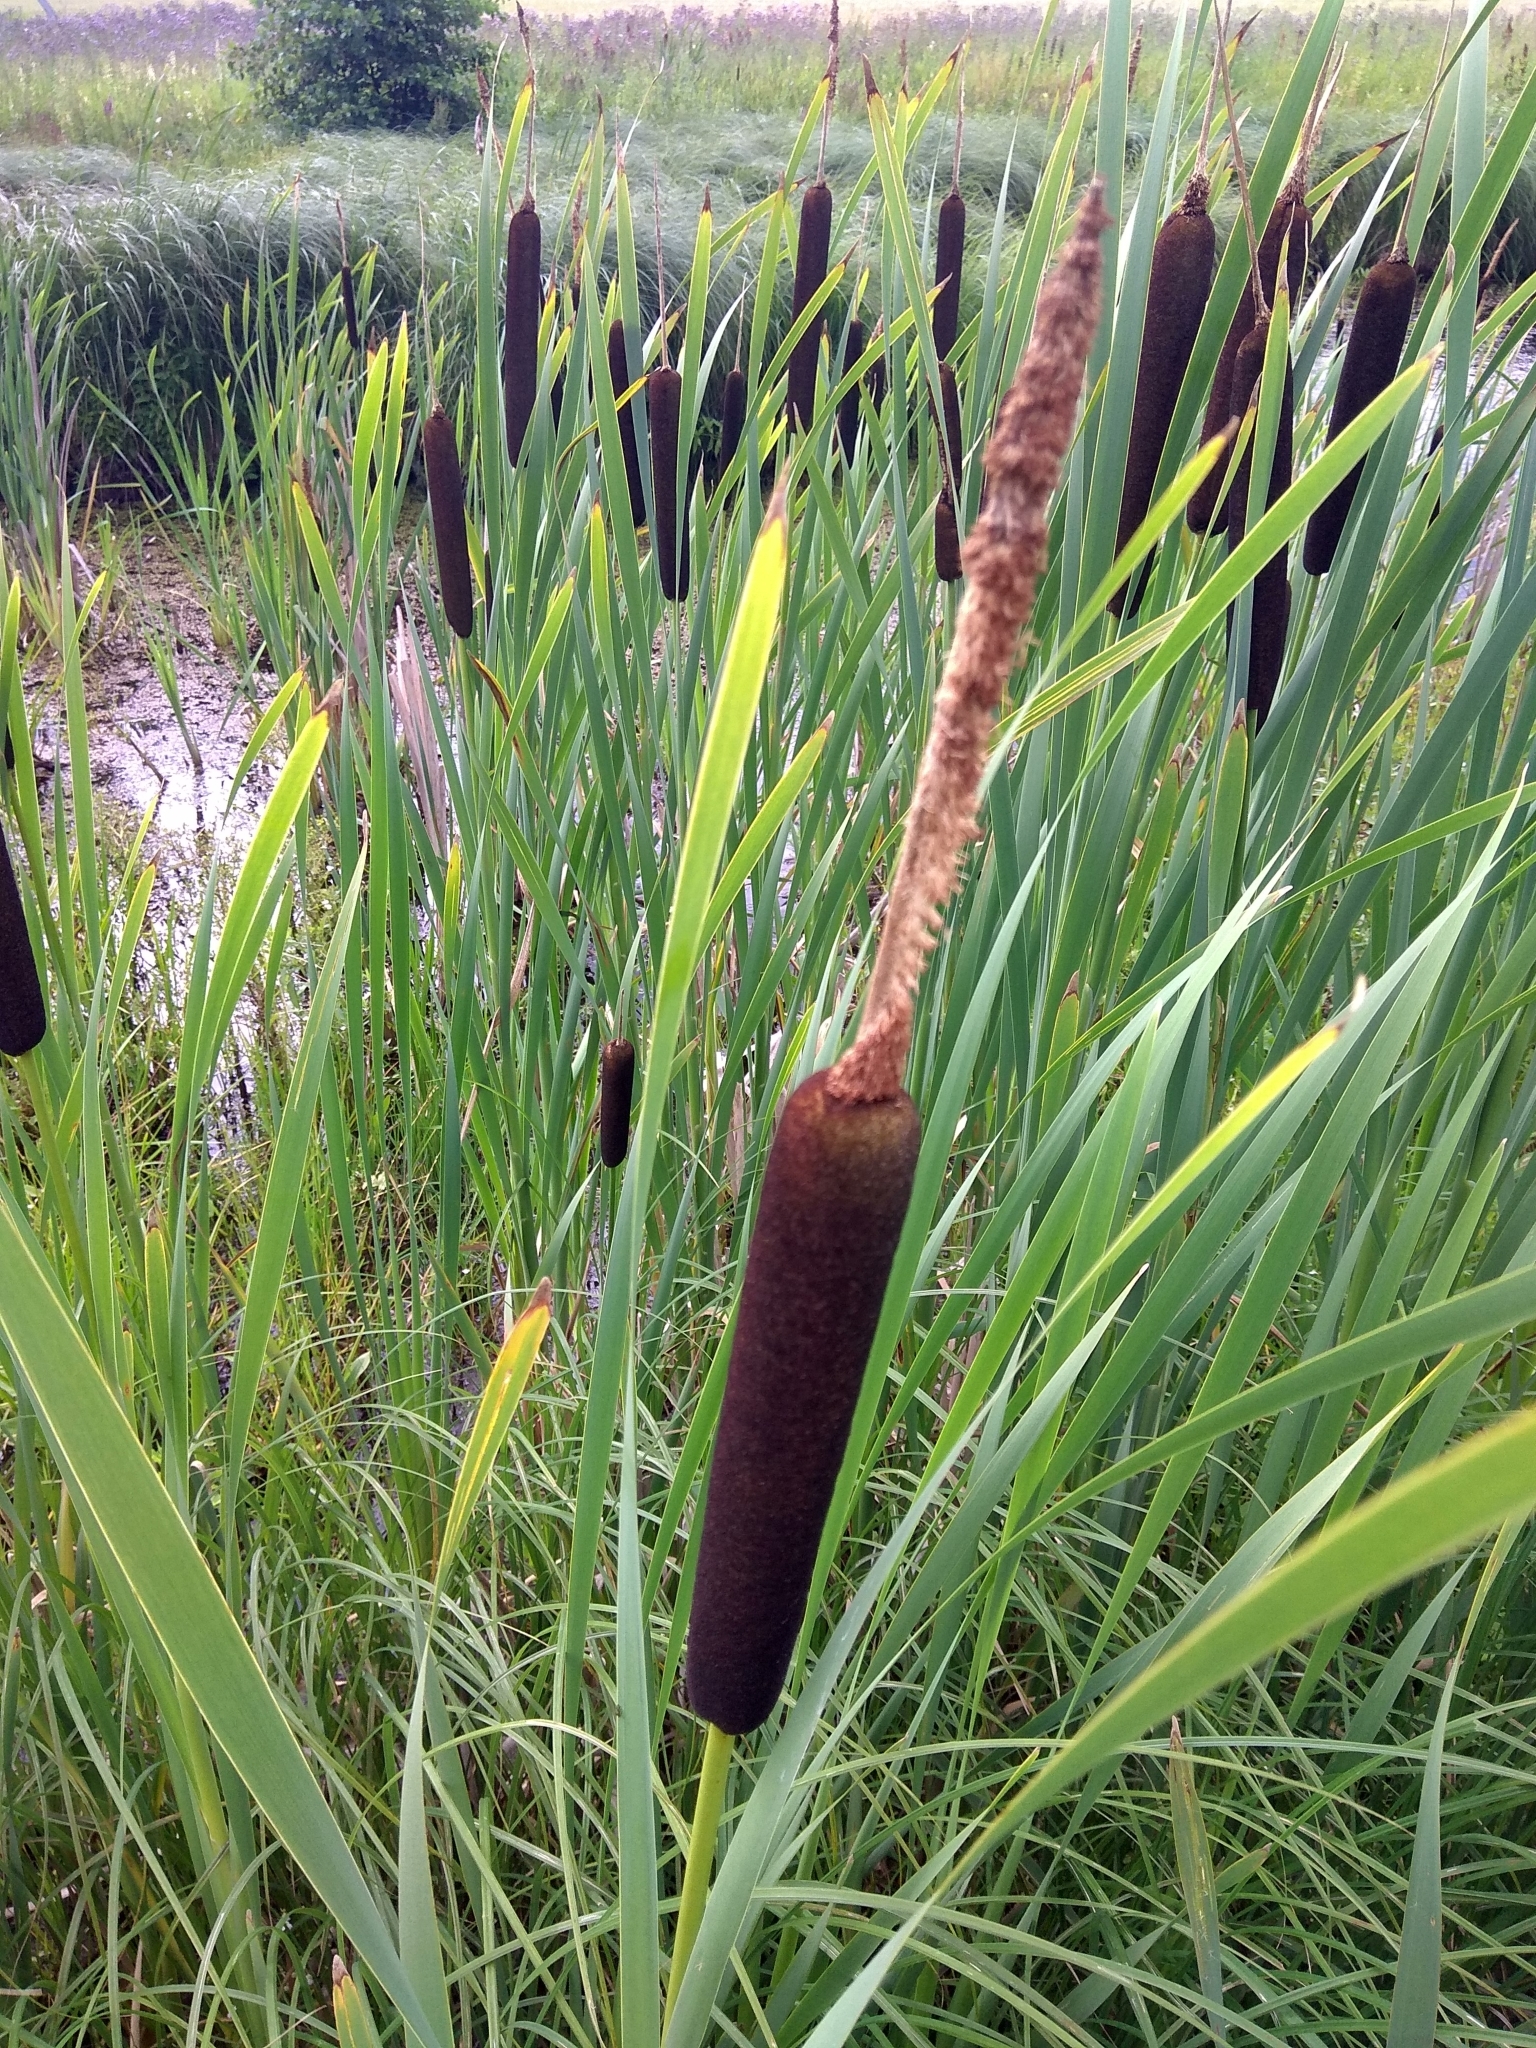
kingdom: Plantae
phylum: Tracheophyta
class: Liliopsida
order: Poales
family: Typhaceae
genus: Typha
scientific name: Typha latifolia
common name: Broadleaf cattail
